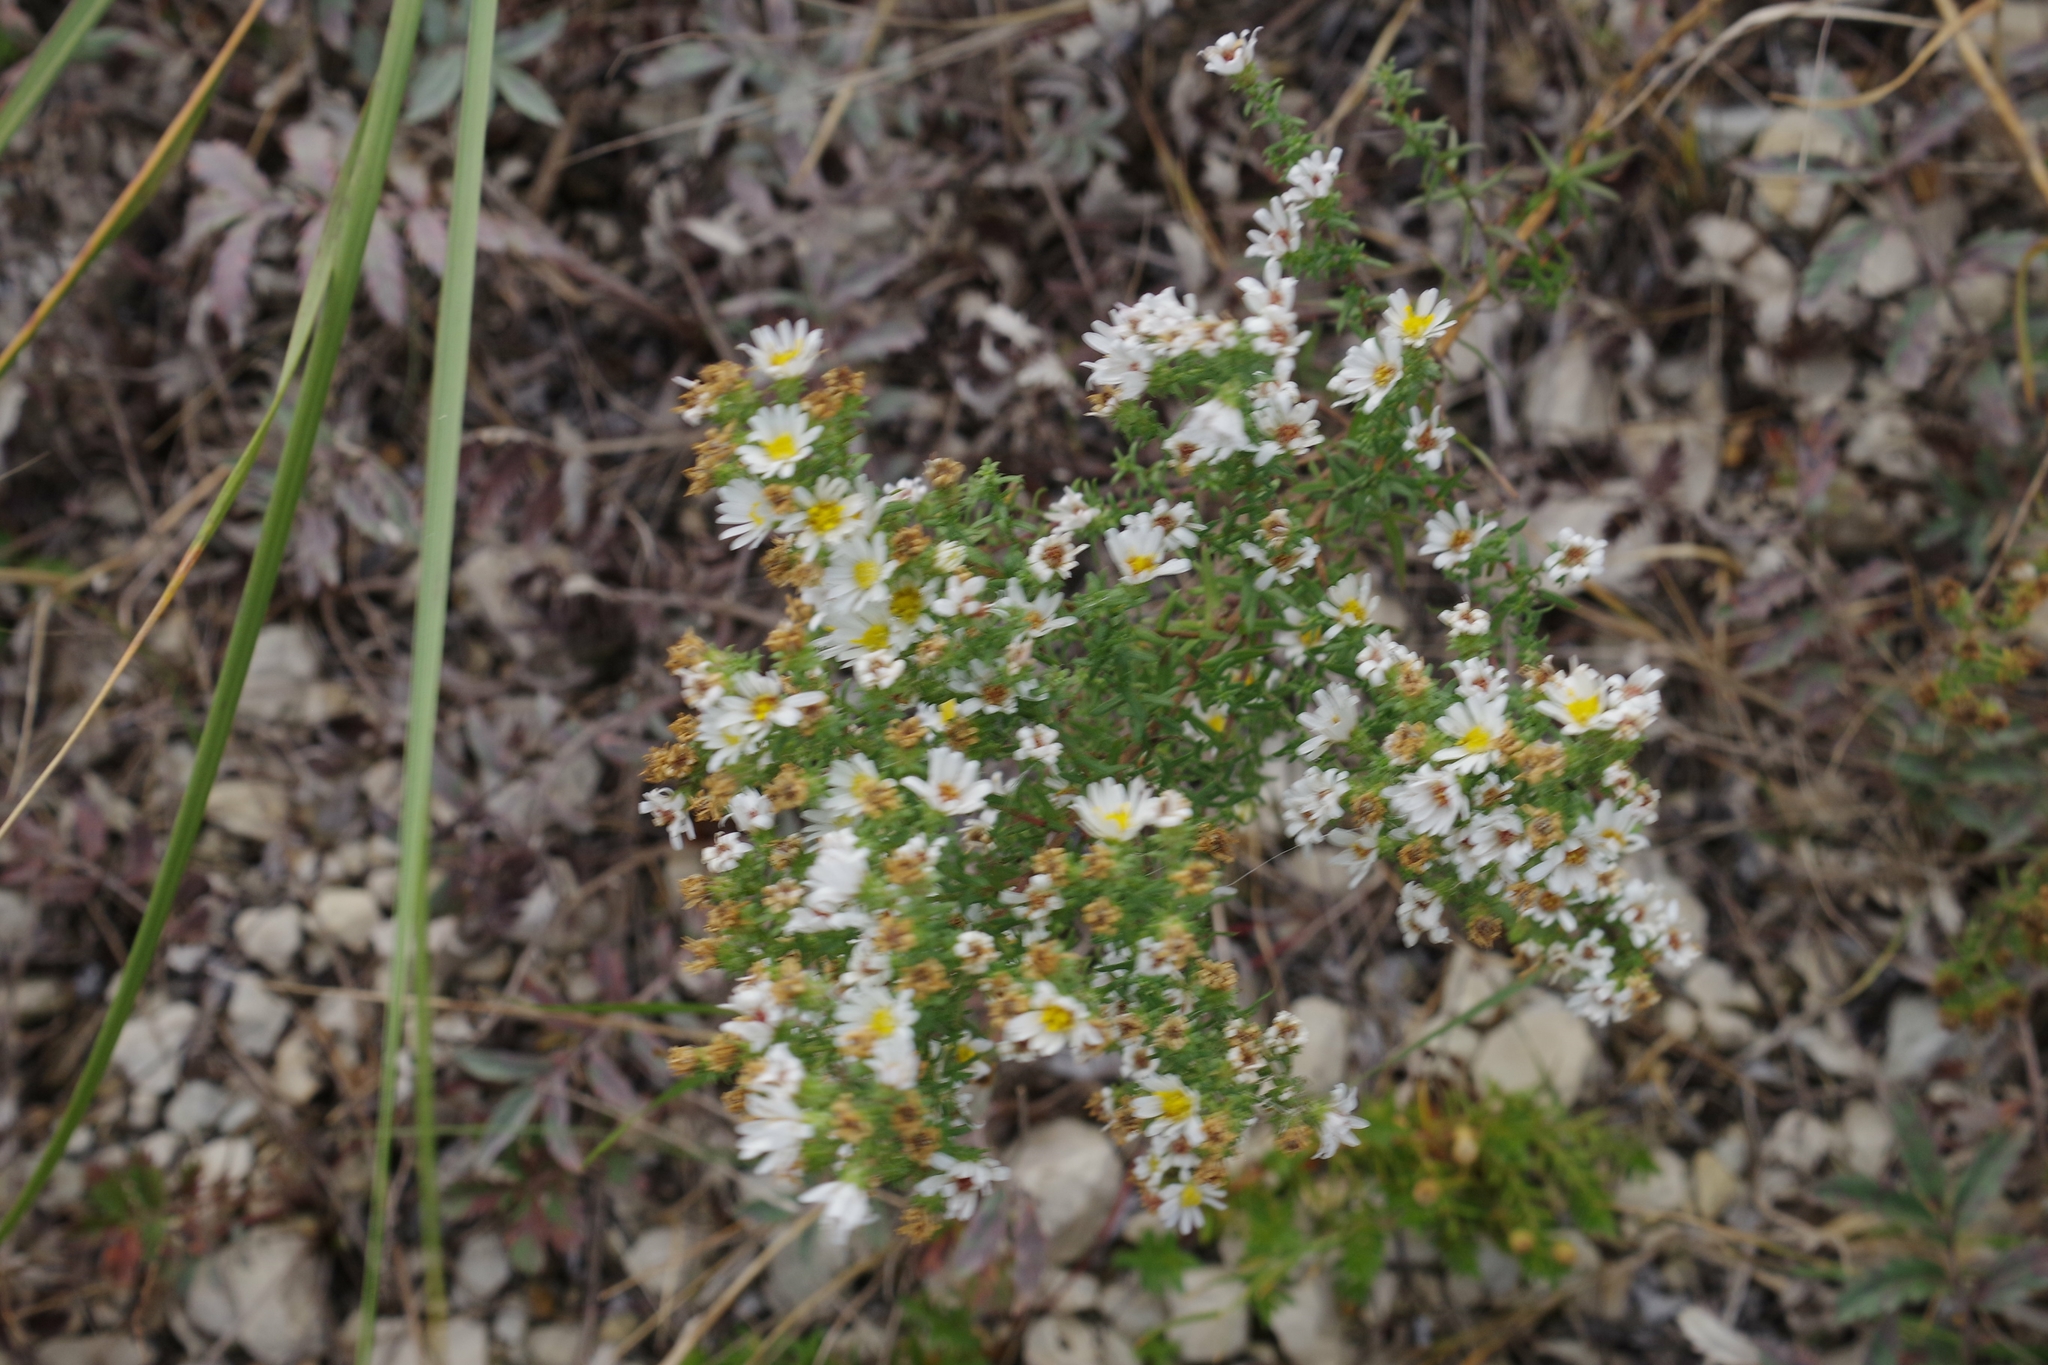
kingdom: Plantae
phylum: Tracheophyta
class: Magnoliopsida
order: Asterales
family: Asteraceae
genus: Symphyotrichum
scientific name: Symphyotrichum ericoides
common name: Heath aster
